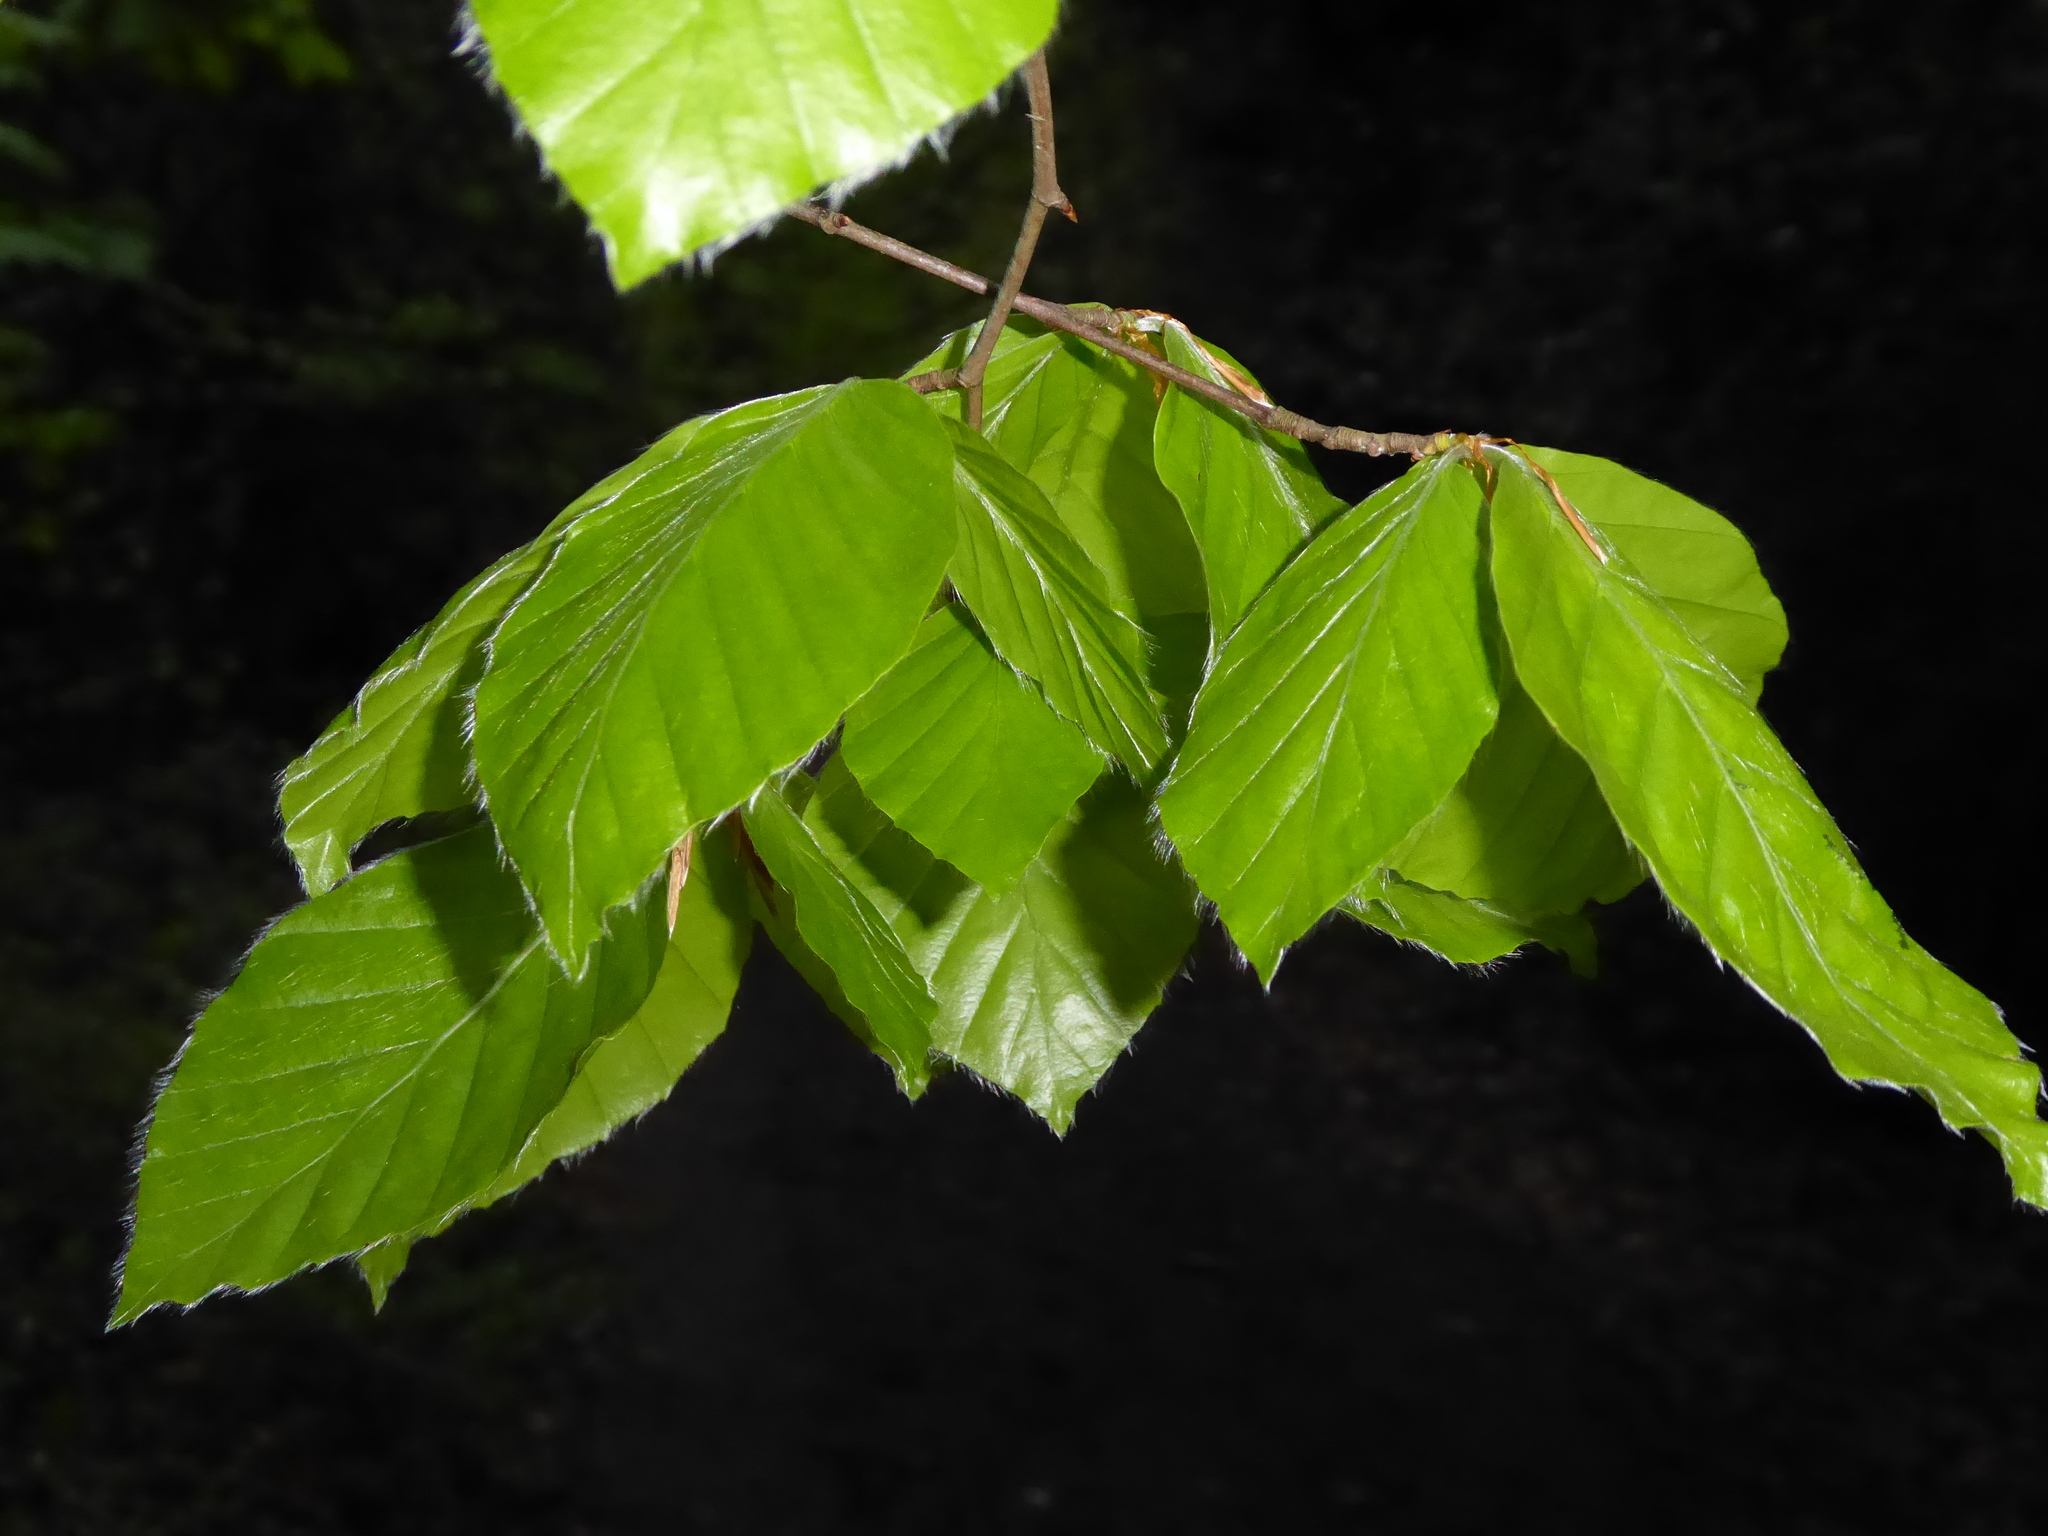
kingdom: Plantae
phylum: Tracheophyta
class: Magnoliopsida
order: Fagales
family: Fagaceae
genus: Fagus
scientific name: Fagus sylvatica
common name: Beech
